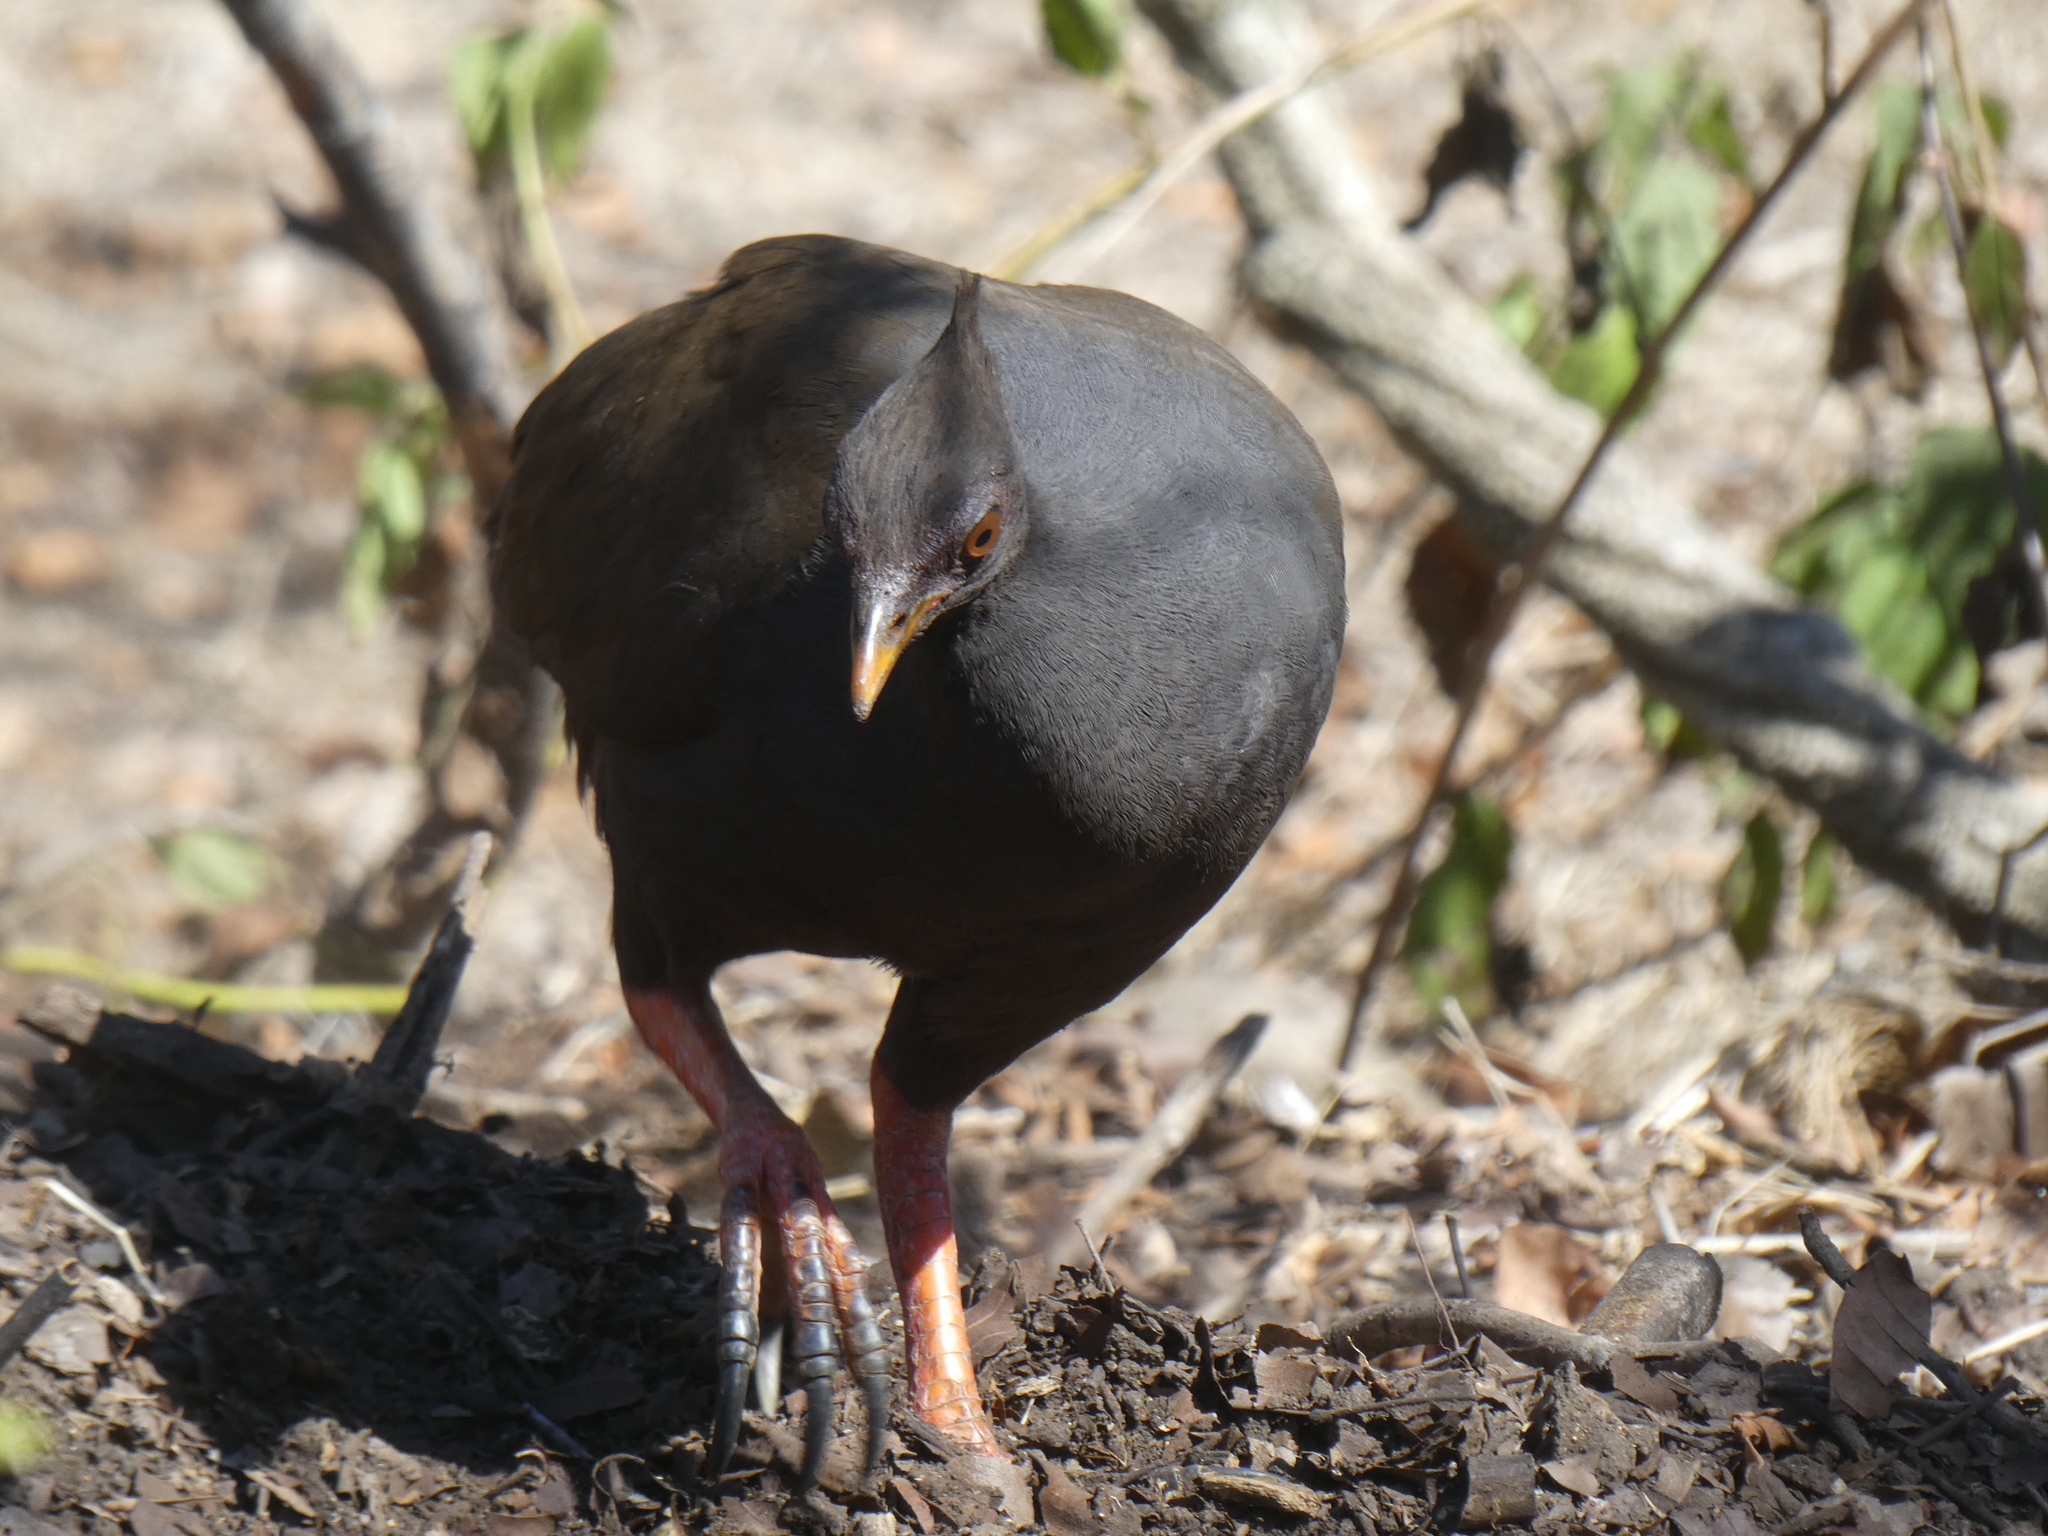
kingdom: Animalia
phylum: Chordata
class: Aves
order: Galliformes
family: Megapodiidae
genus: Megapodius
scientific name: Megapodius reinwardt
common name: Orange-footed scrubfowl
